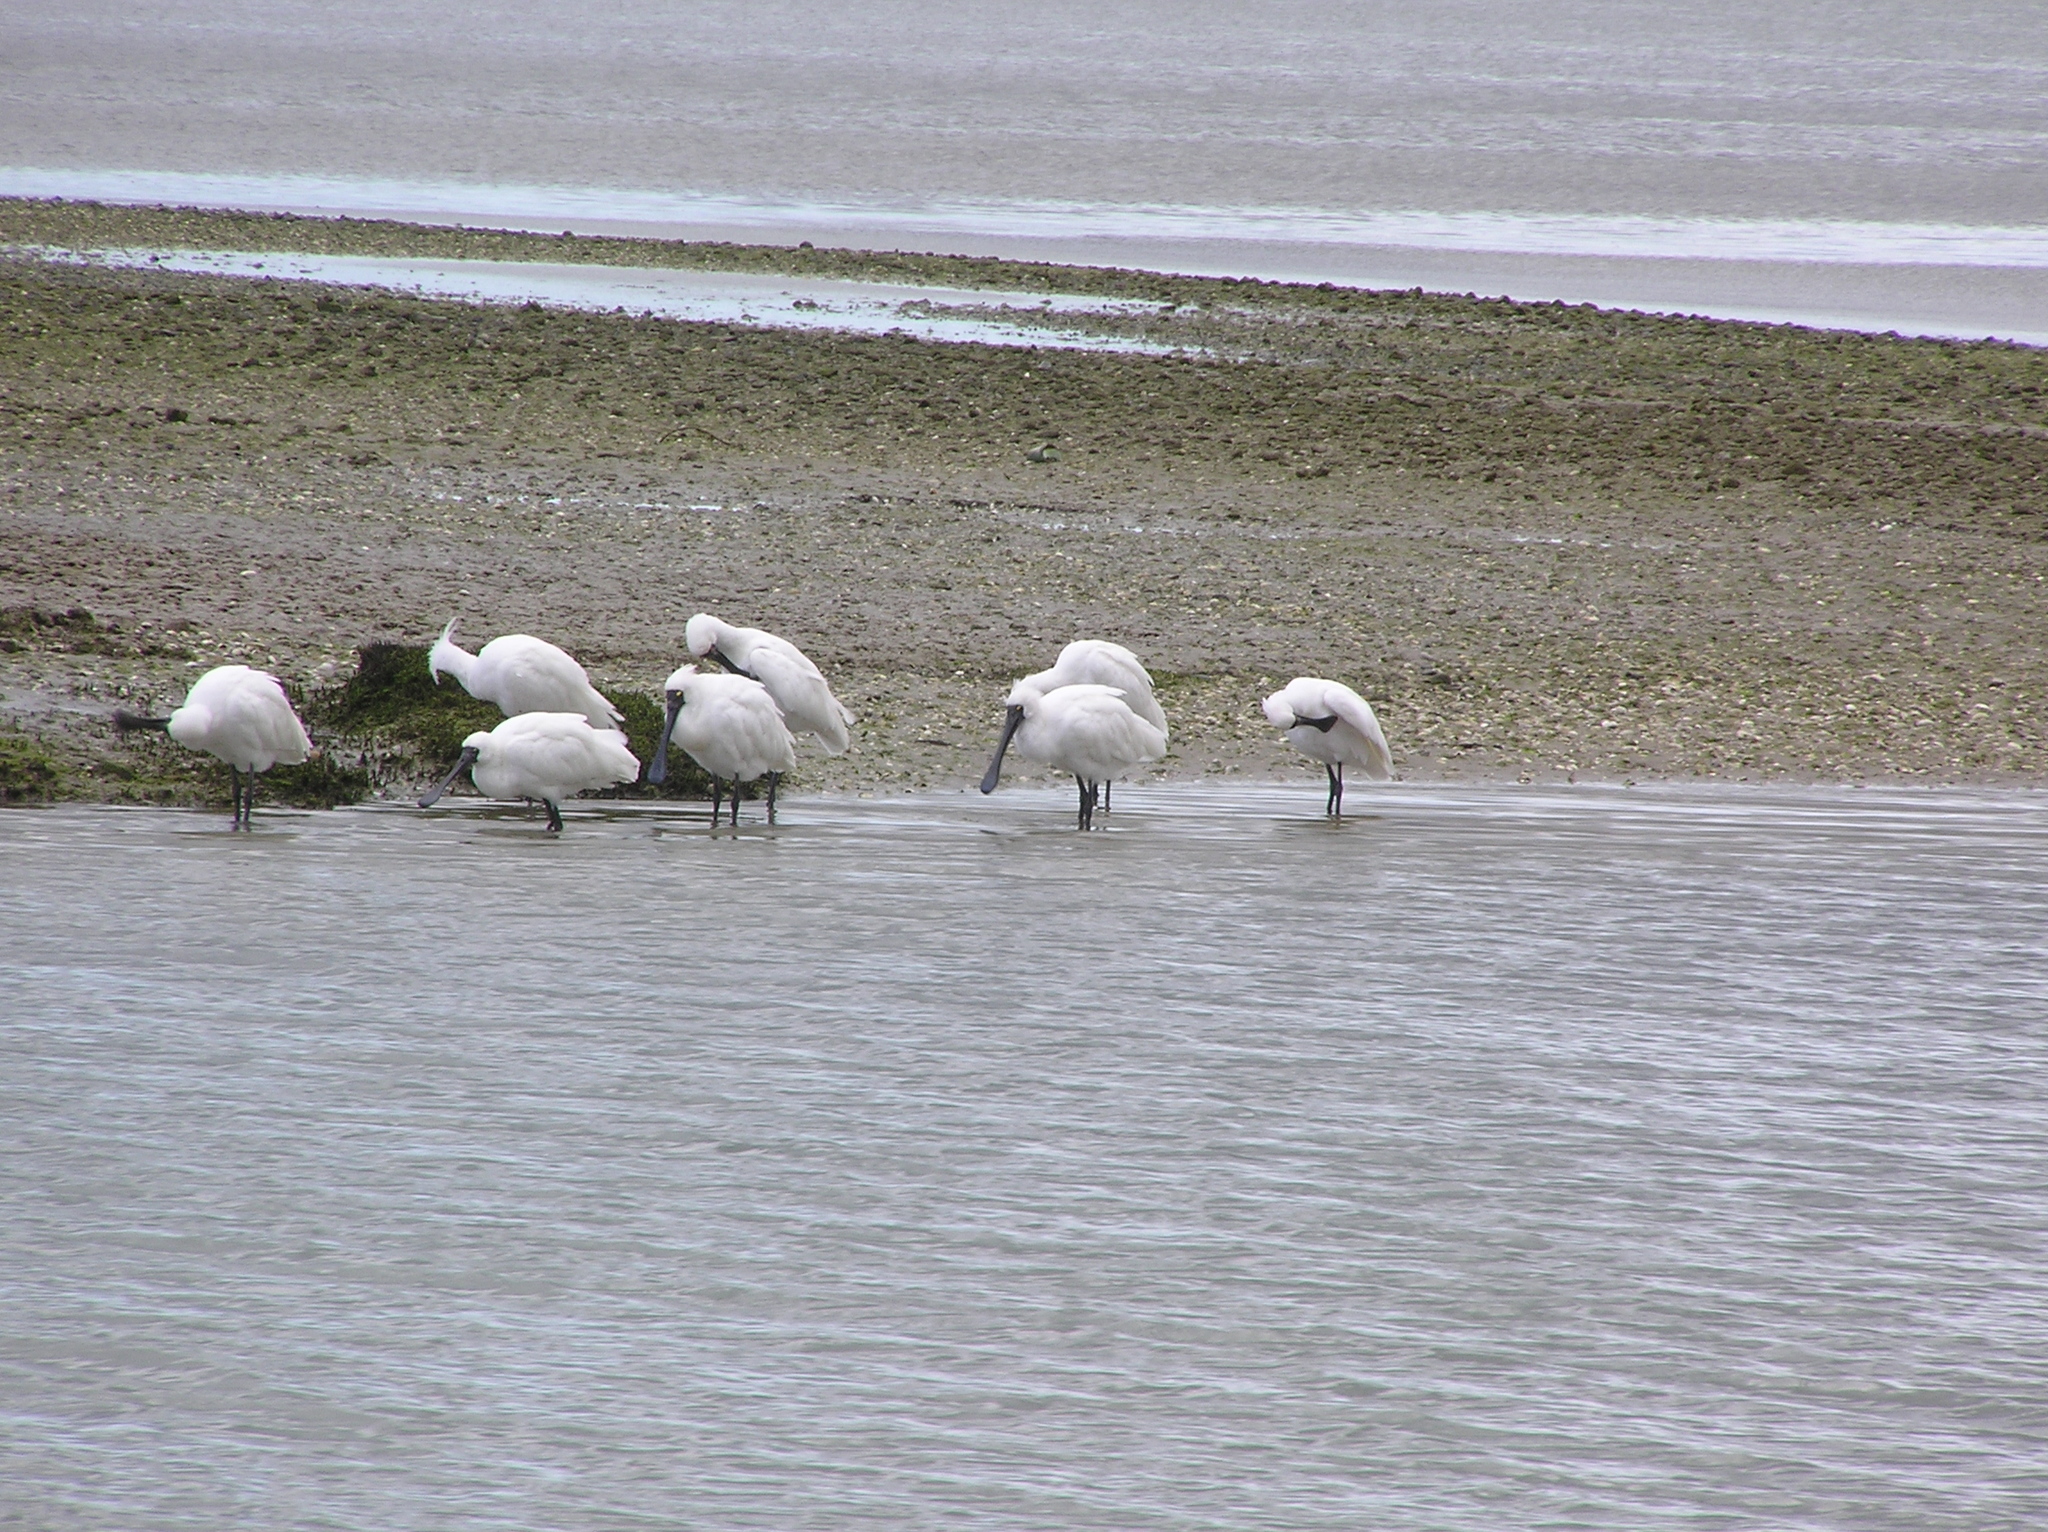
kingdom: Animalia
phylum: Chordata
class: Aves
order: Pelecaniformes
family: Threskiornithidae
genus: Platalea
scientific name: Platalea regia
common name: Royal spoonbill
